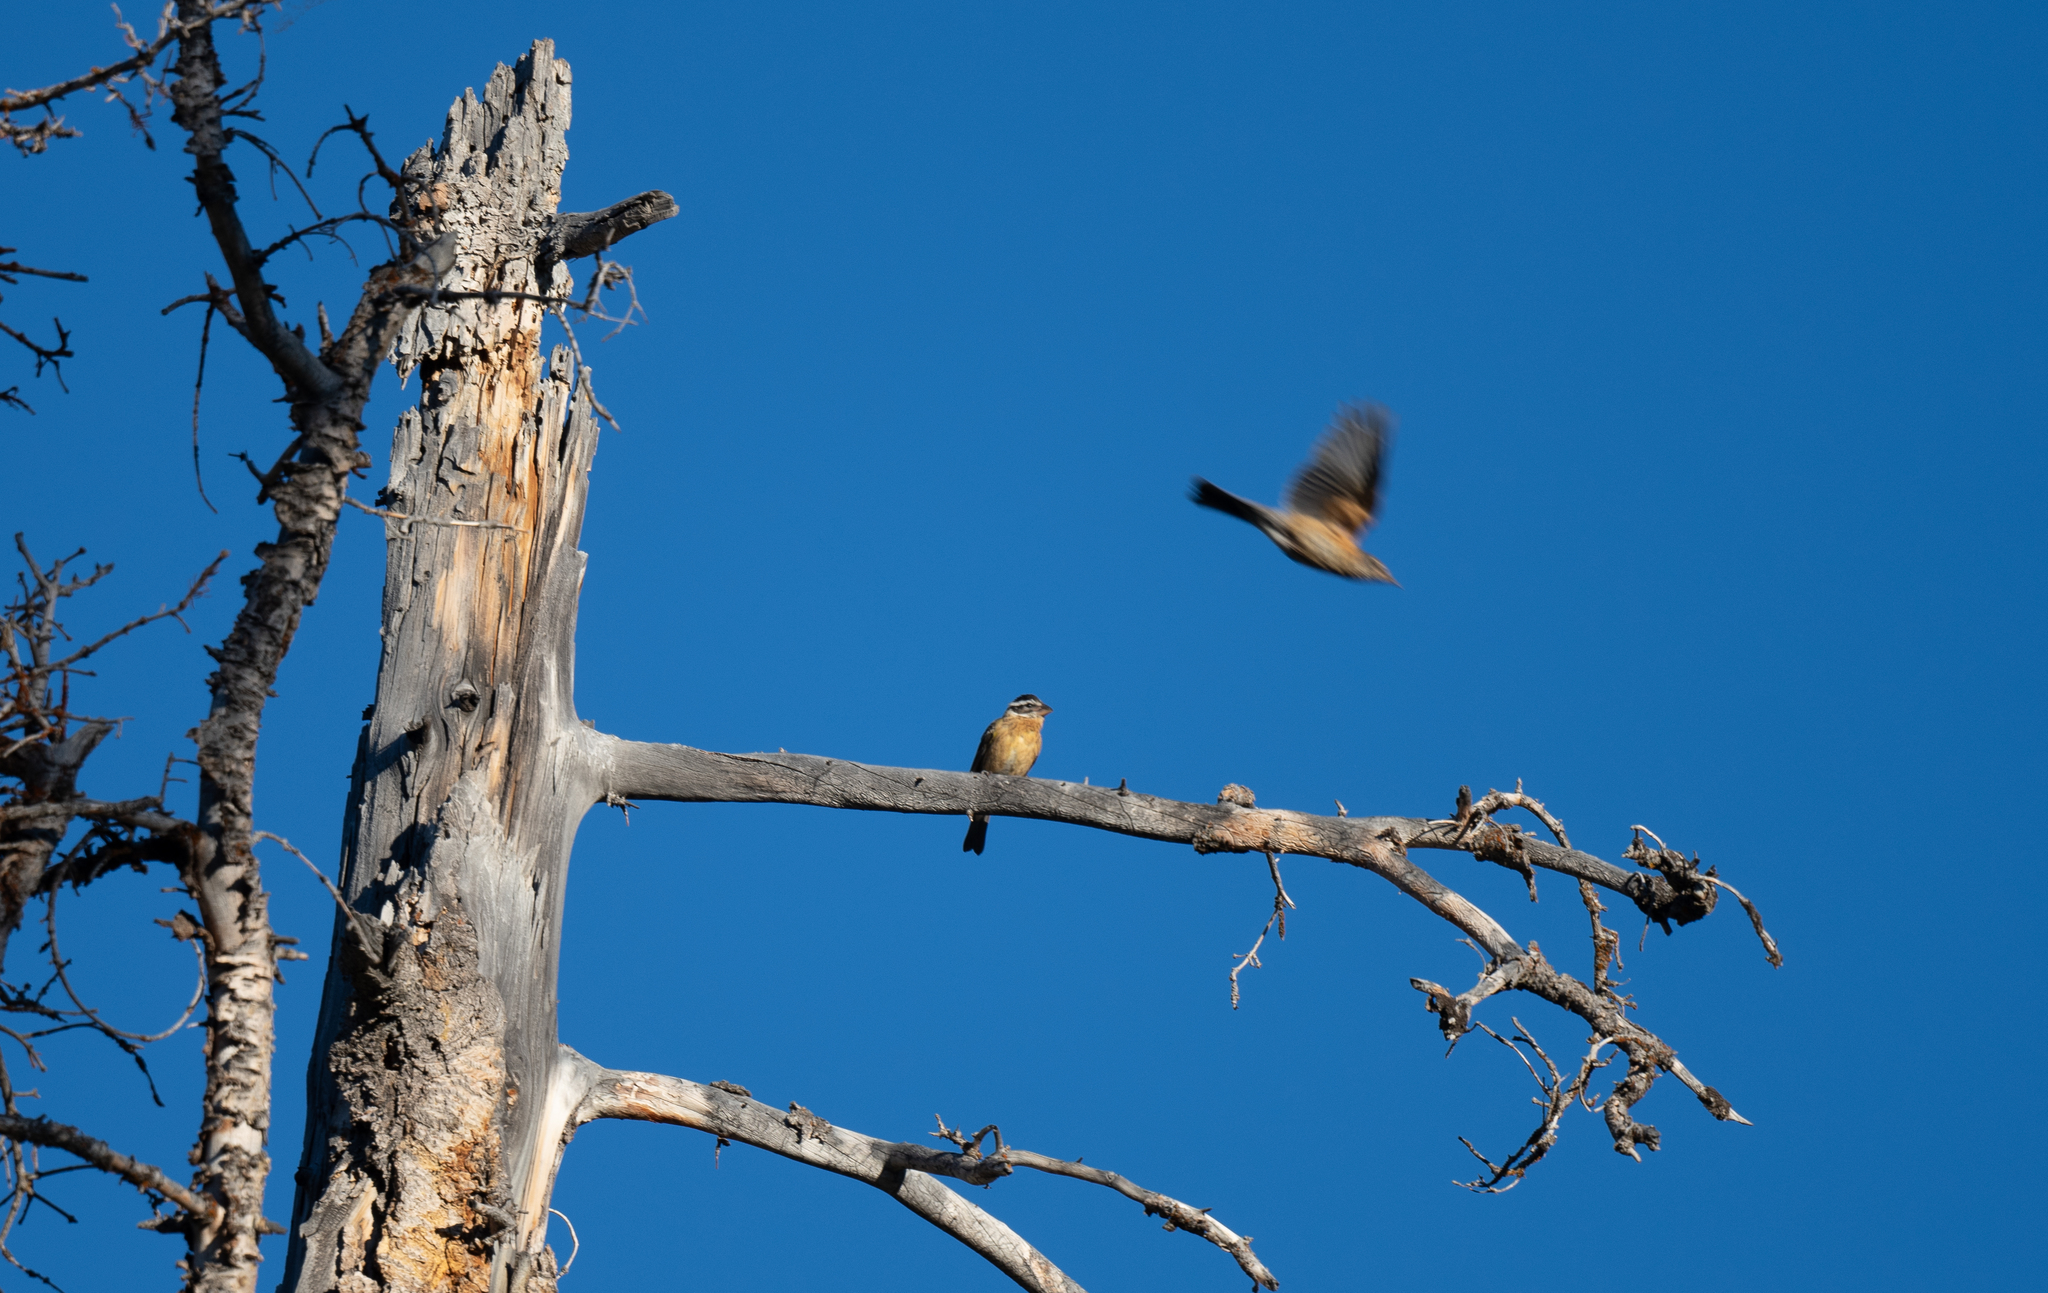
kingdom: Animalia
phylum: Chordata
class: Aves
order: Passeriformes
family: Cardinalidae
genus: Pheucticus
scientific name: Pheucticus melanocephalus
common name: Black-headed grosbeak
